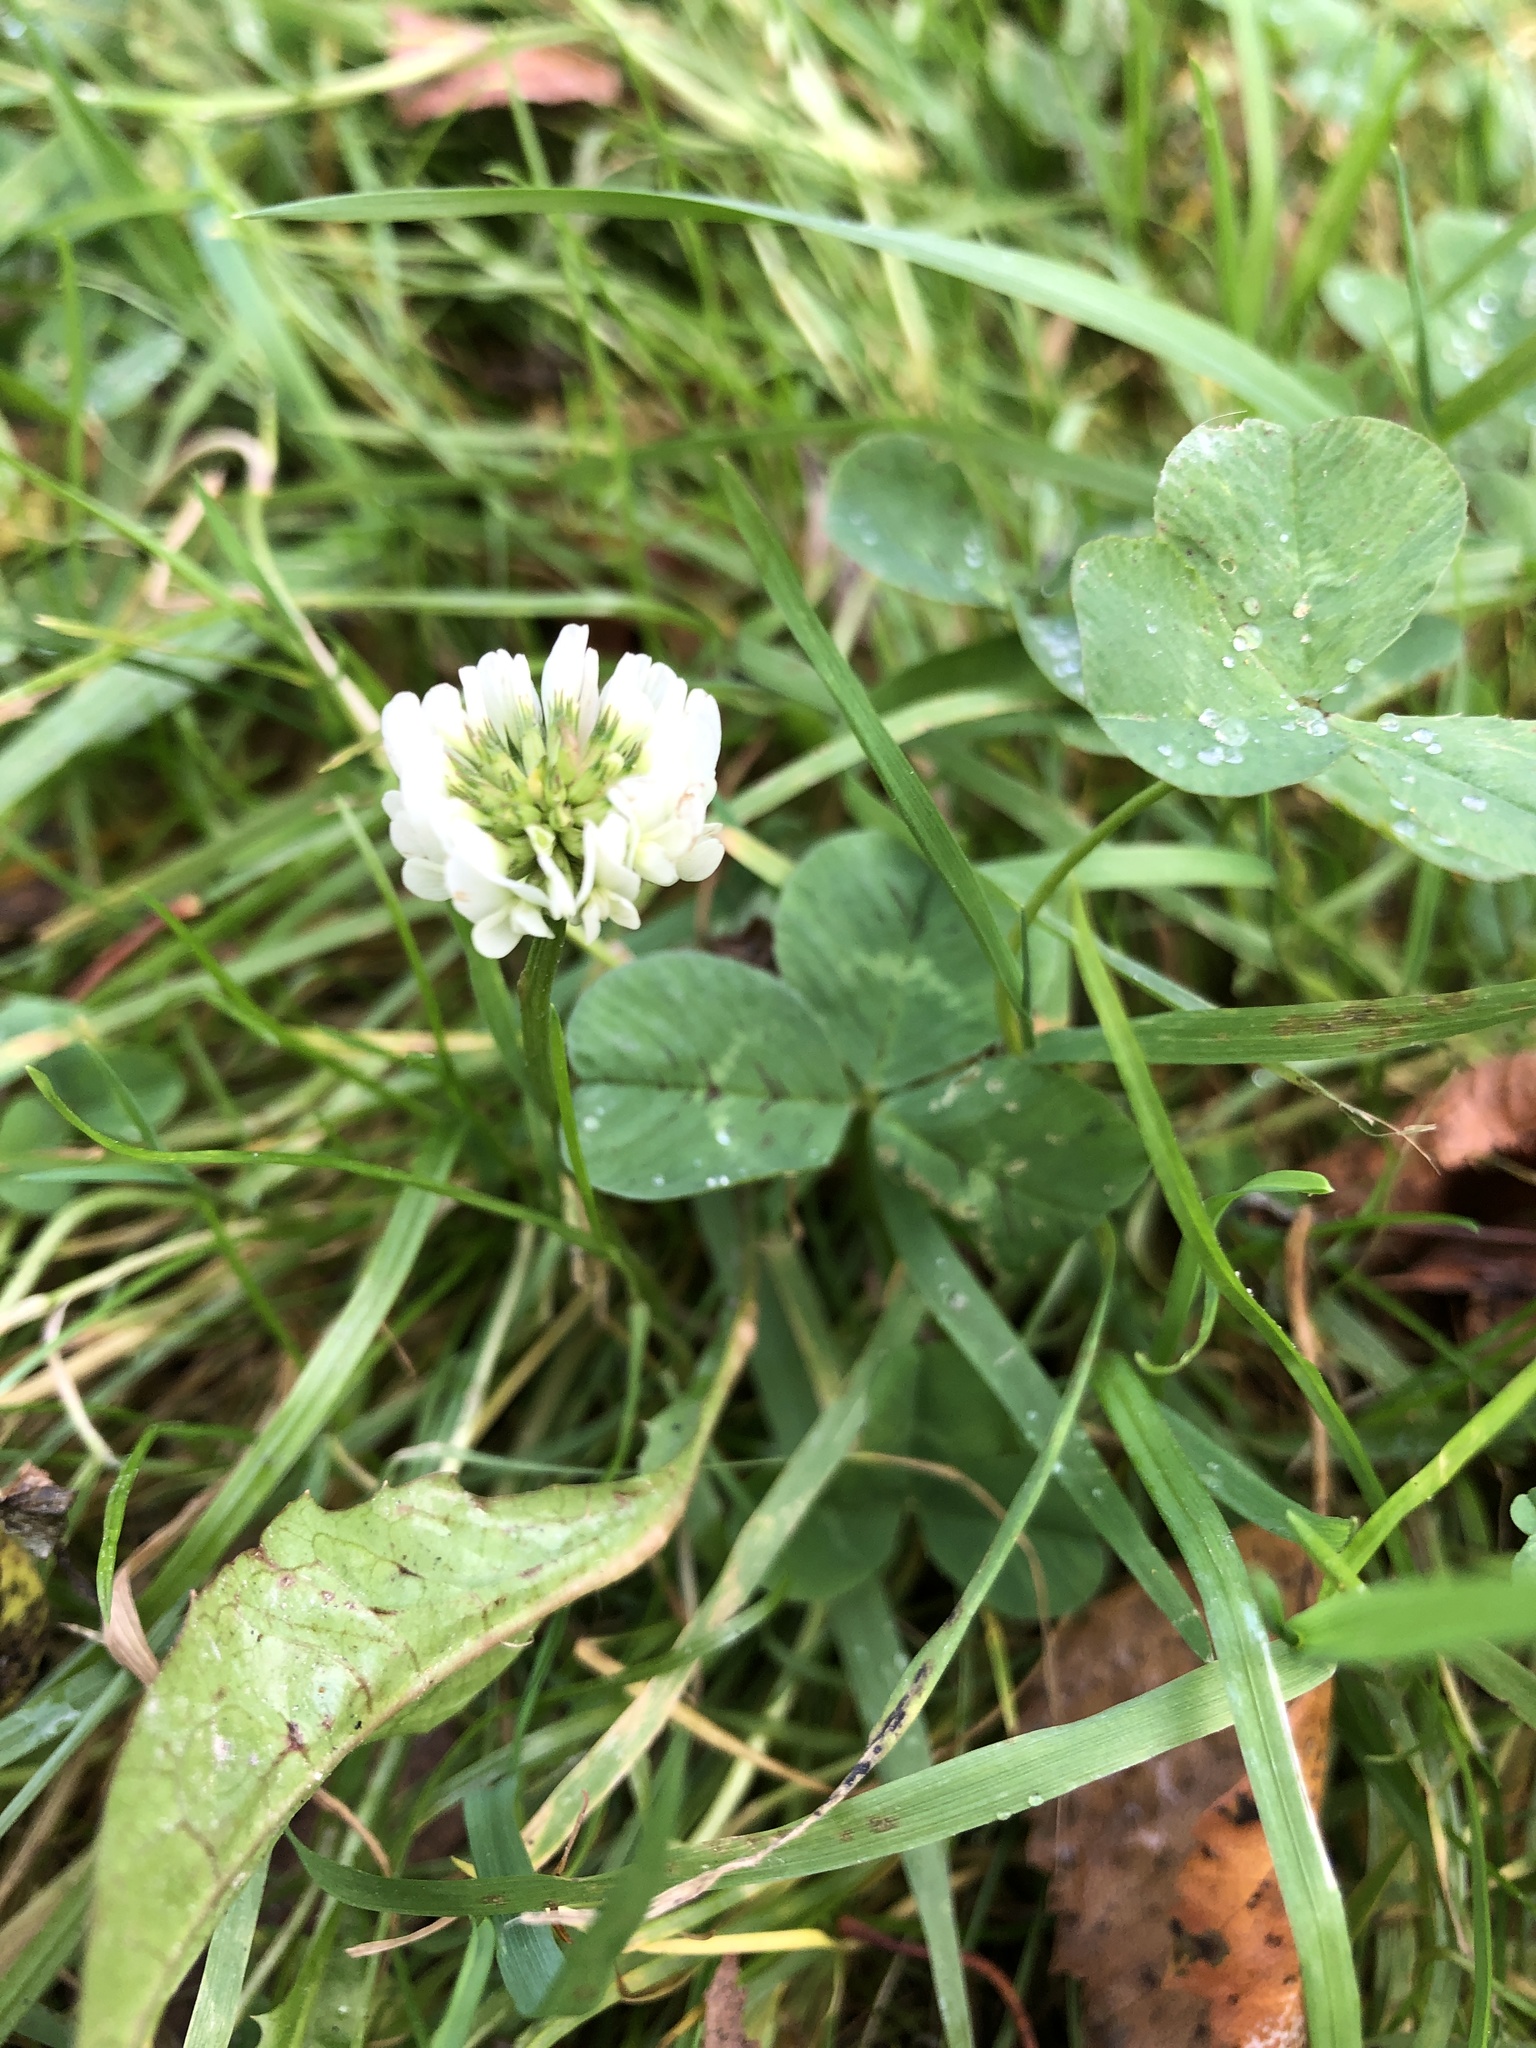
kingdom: Plantae
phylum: Tracheophyta
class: Magnoliopsida
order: Fabales
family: Fabaceae
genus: Trifolium
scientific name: Trifolium repens
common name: White clover
